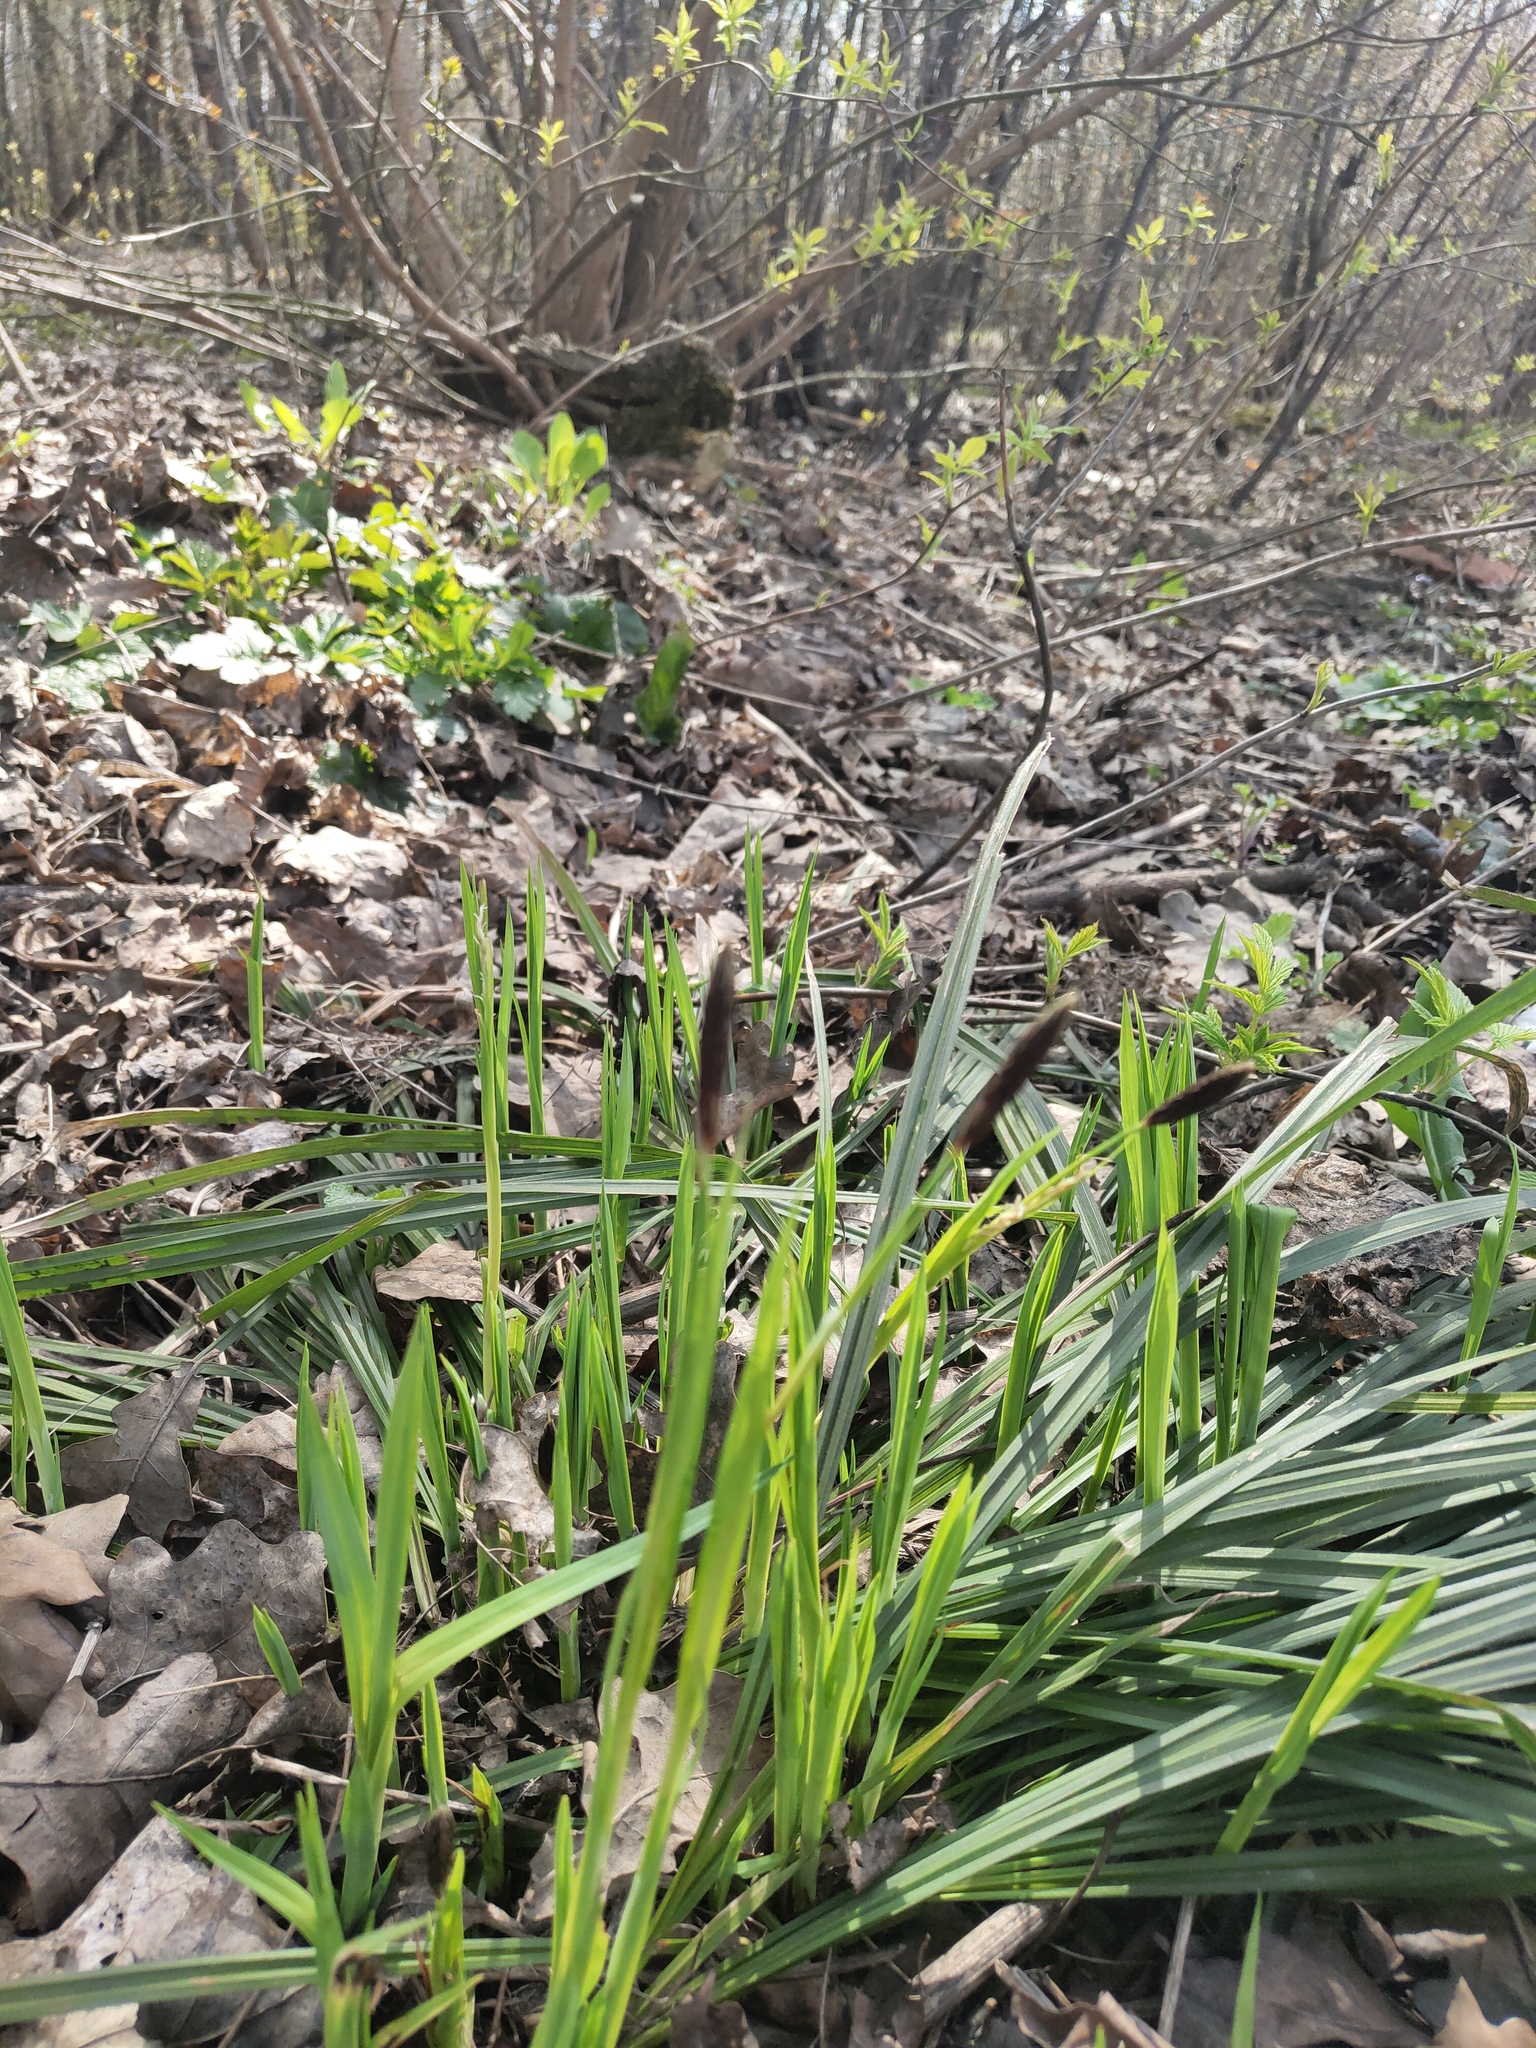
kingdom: Plantae
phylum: Tracheophyta
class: Liliopsida
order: Poales
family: Cyperaceae
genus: Carex
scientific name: Carex pilosa
